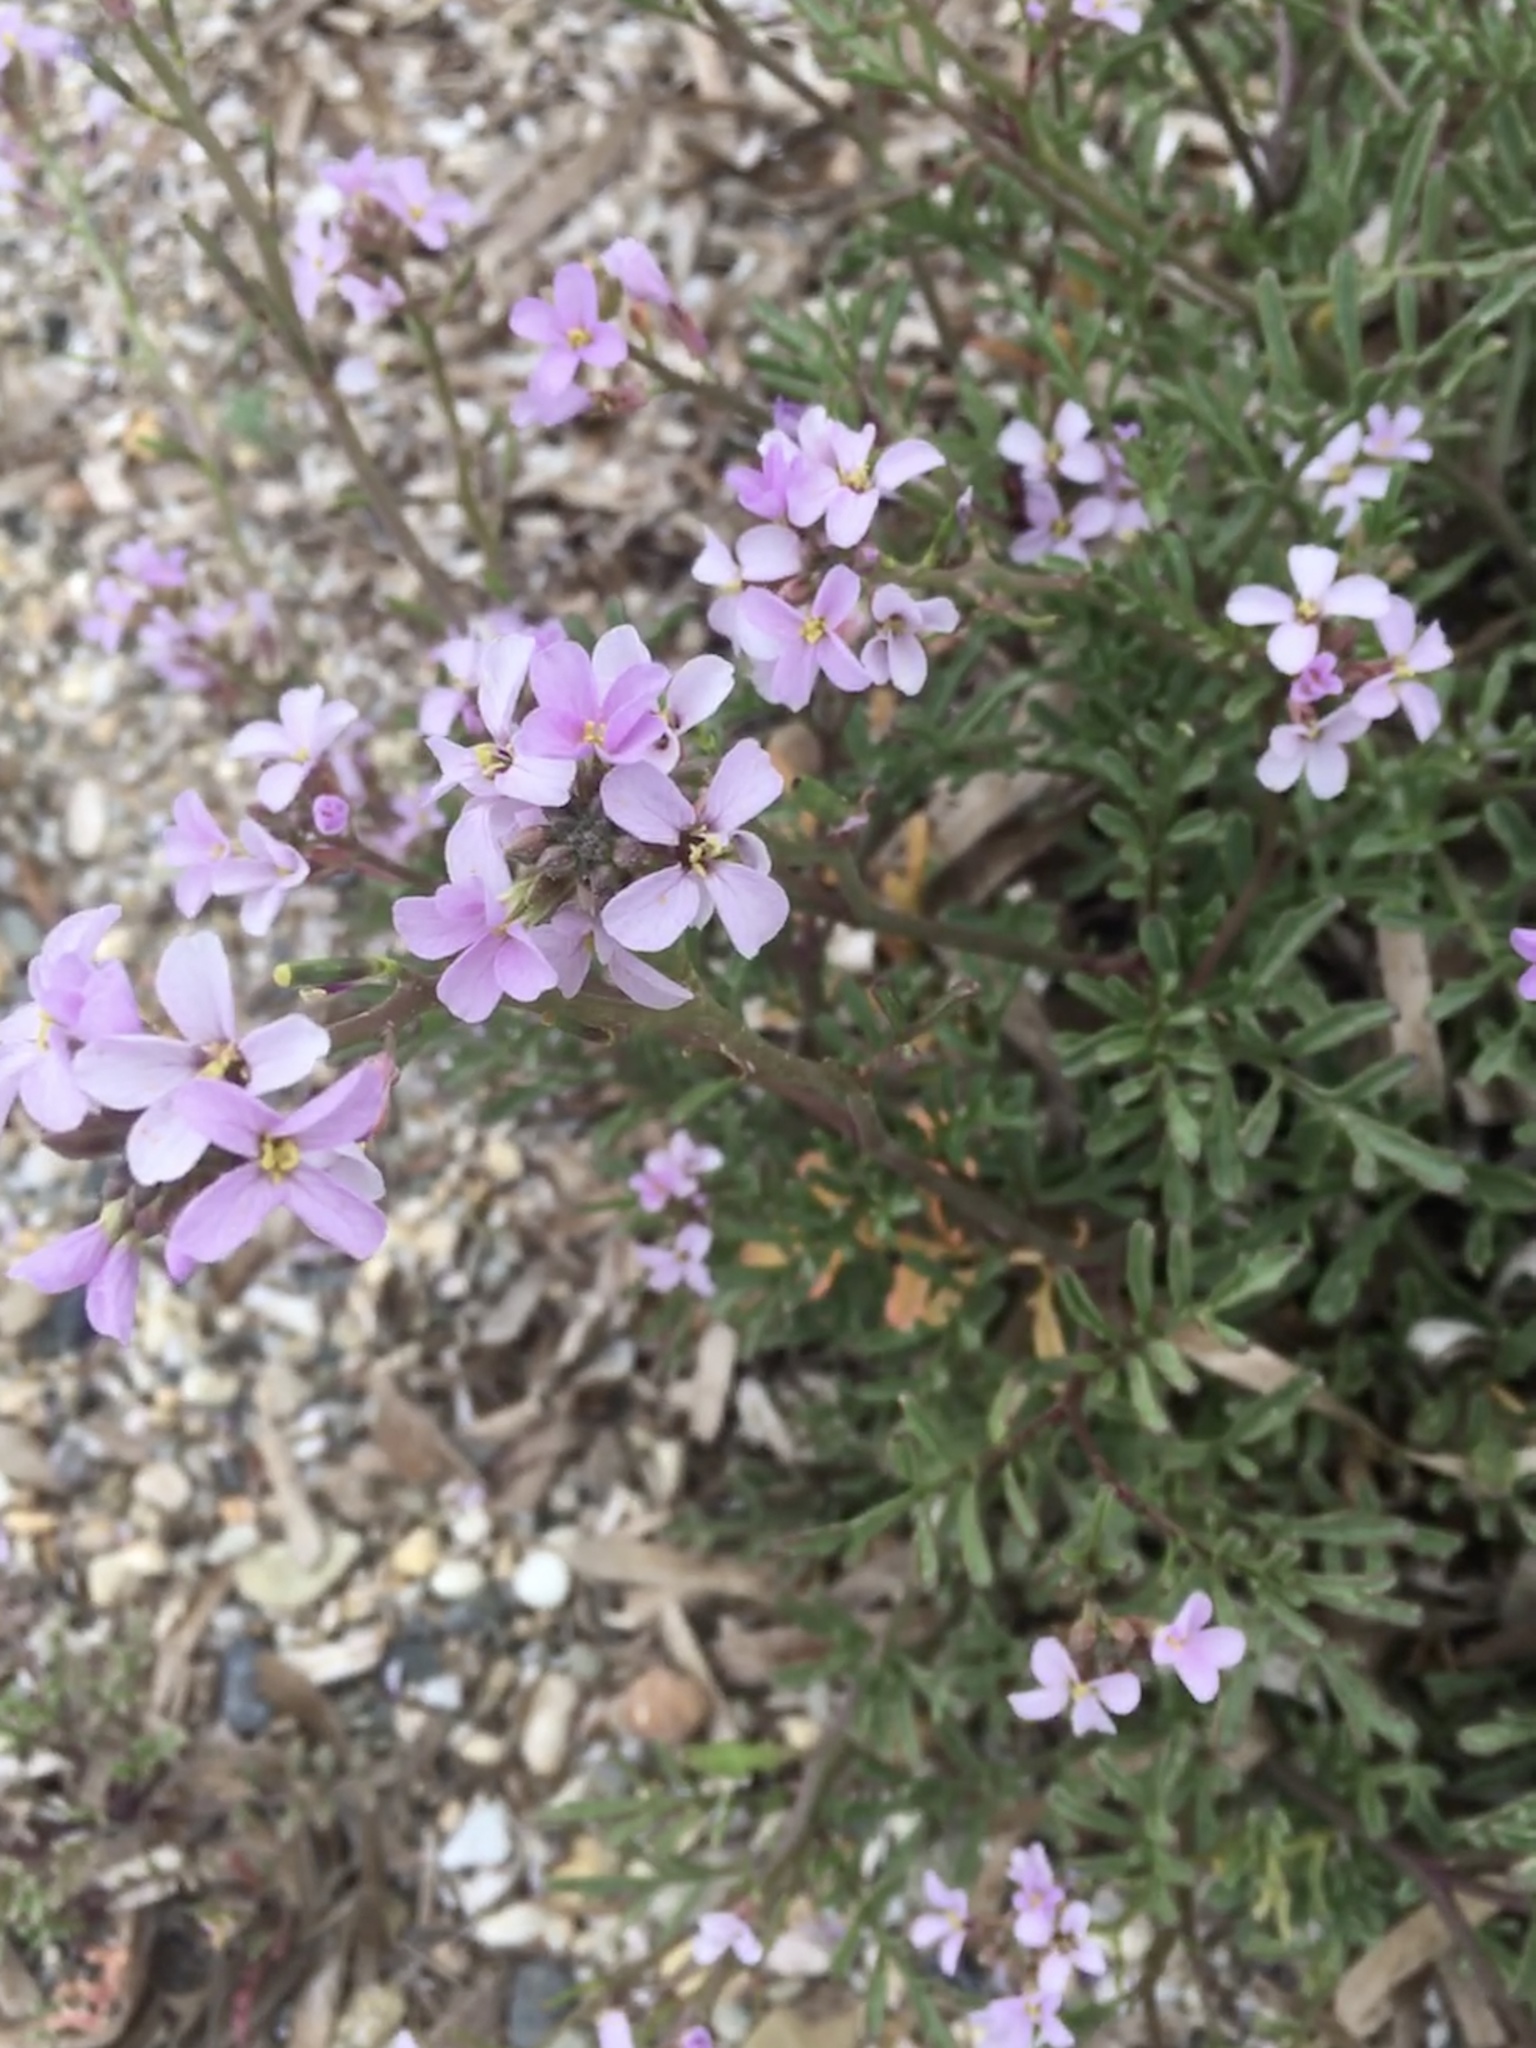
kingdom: Plantae
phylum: Tracheophyta
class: Magnoliopsida
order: Brassicales
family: Brassicaceae
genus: Cakile
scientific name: Cakile maritima
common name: Sea rocket
